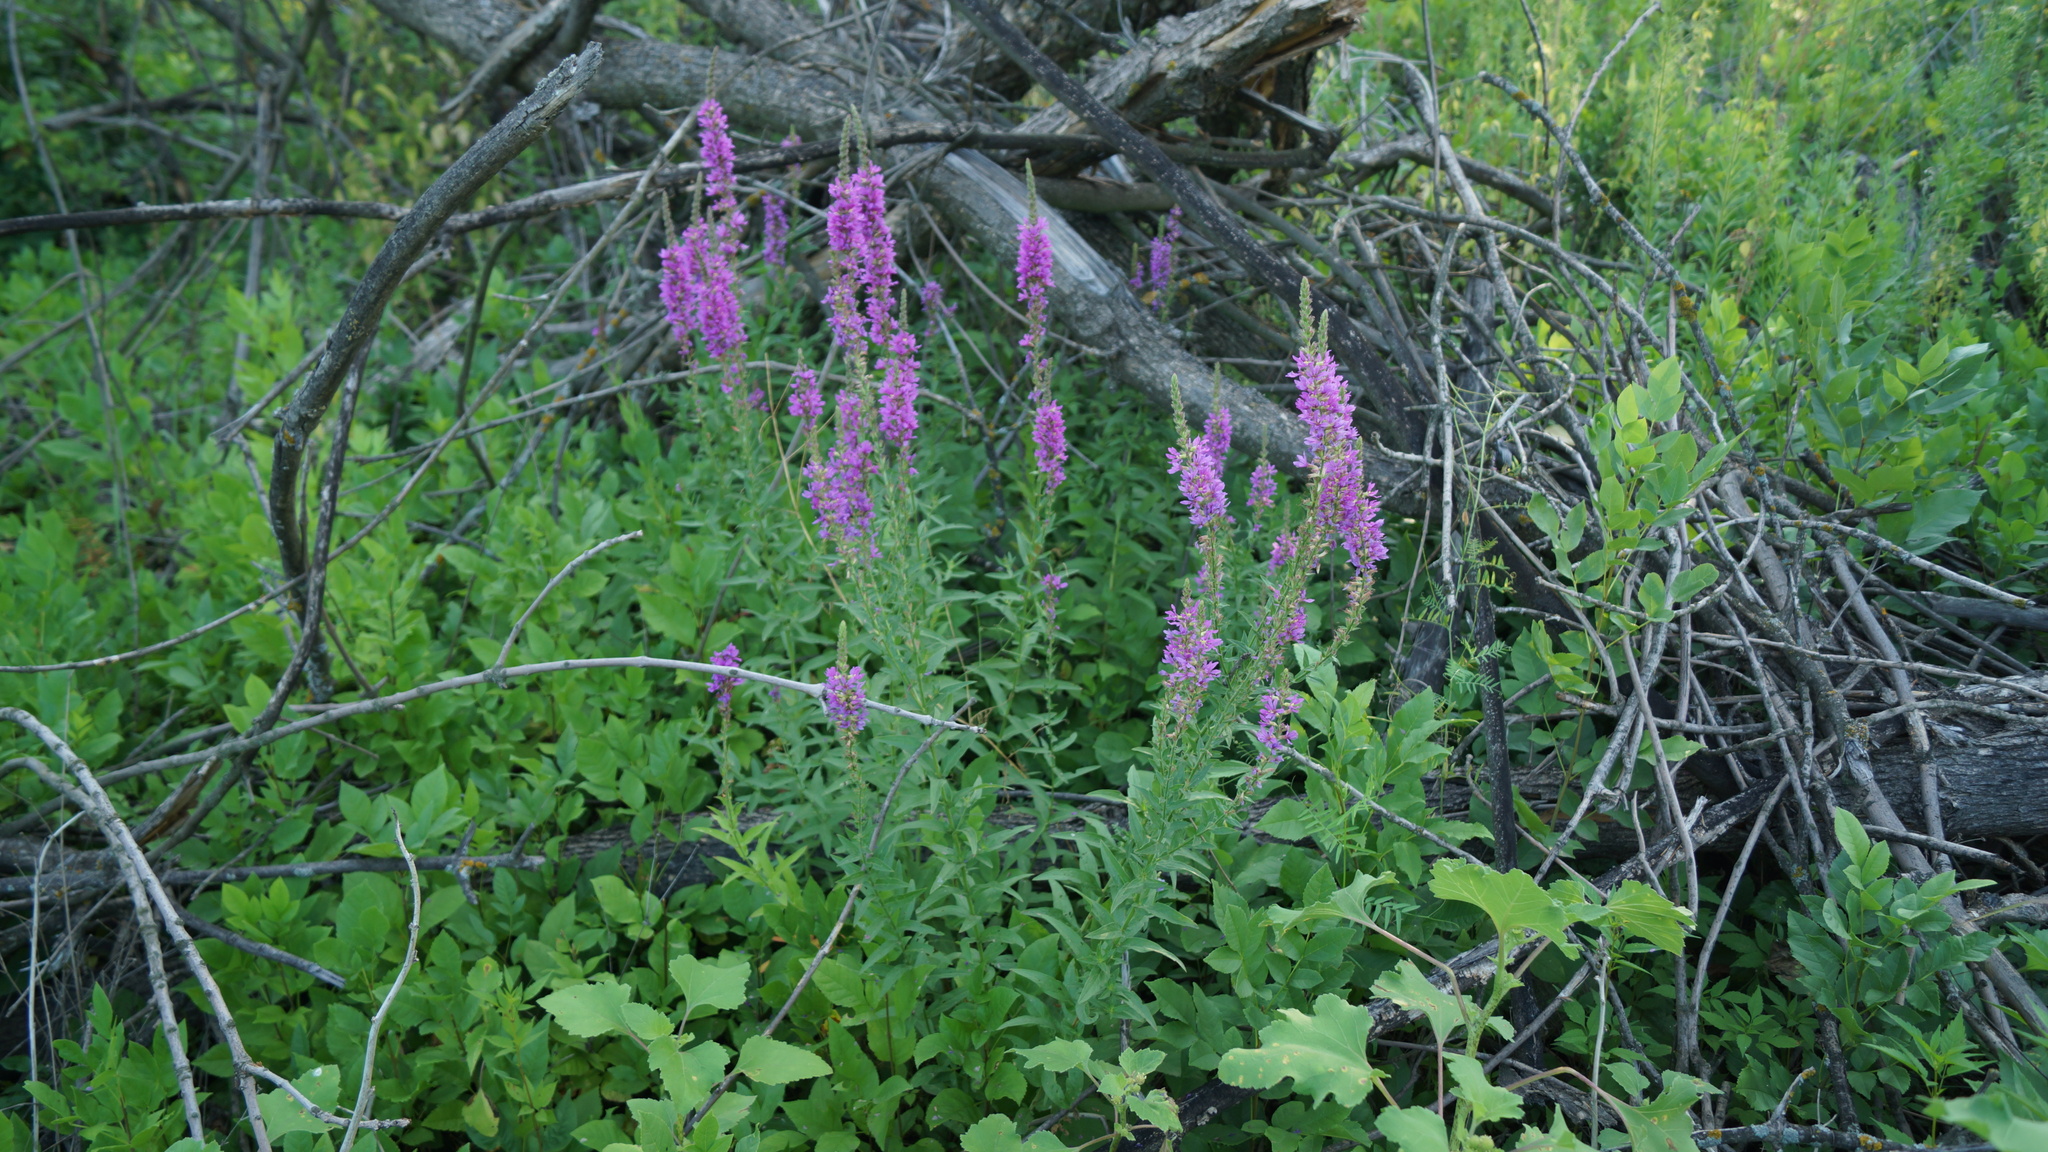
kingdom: Plantae
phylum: Tracheophyta
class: Magnoliopsida
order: Myrtales
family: Lythraceae
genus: Lythrum
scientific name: Lythrum salicaria
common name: Purple loosestrife
